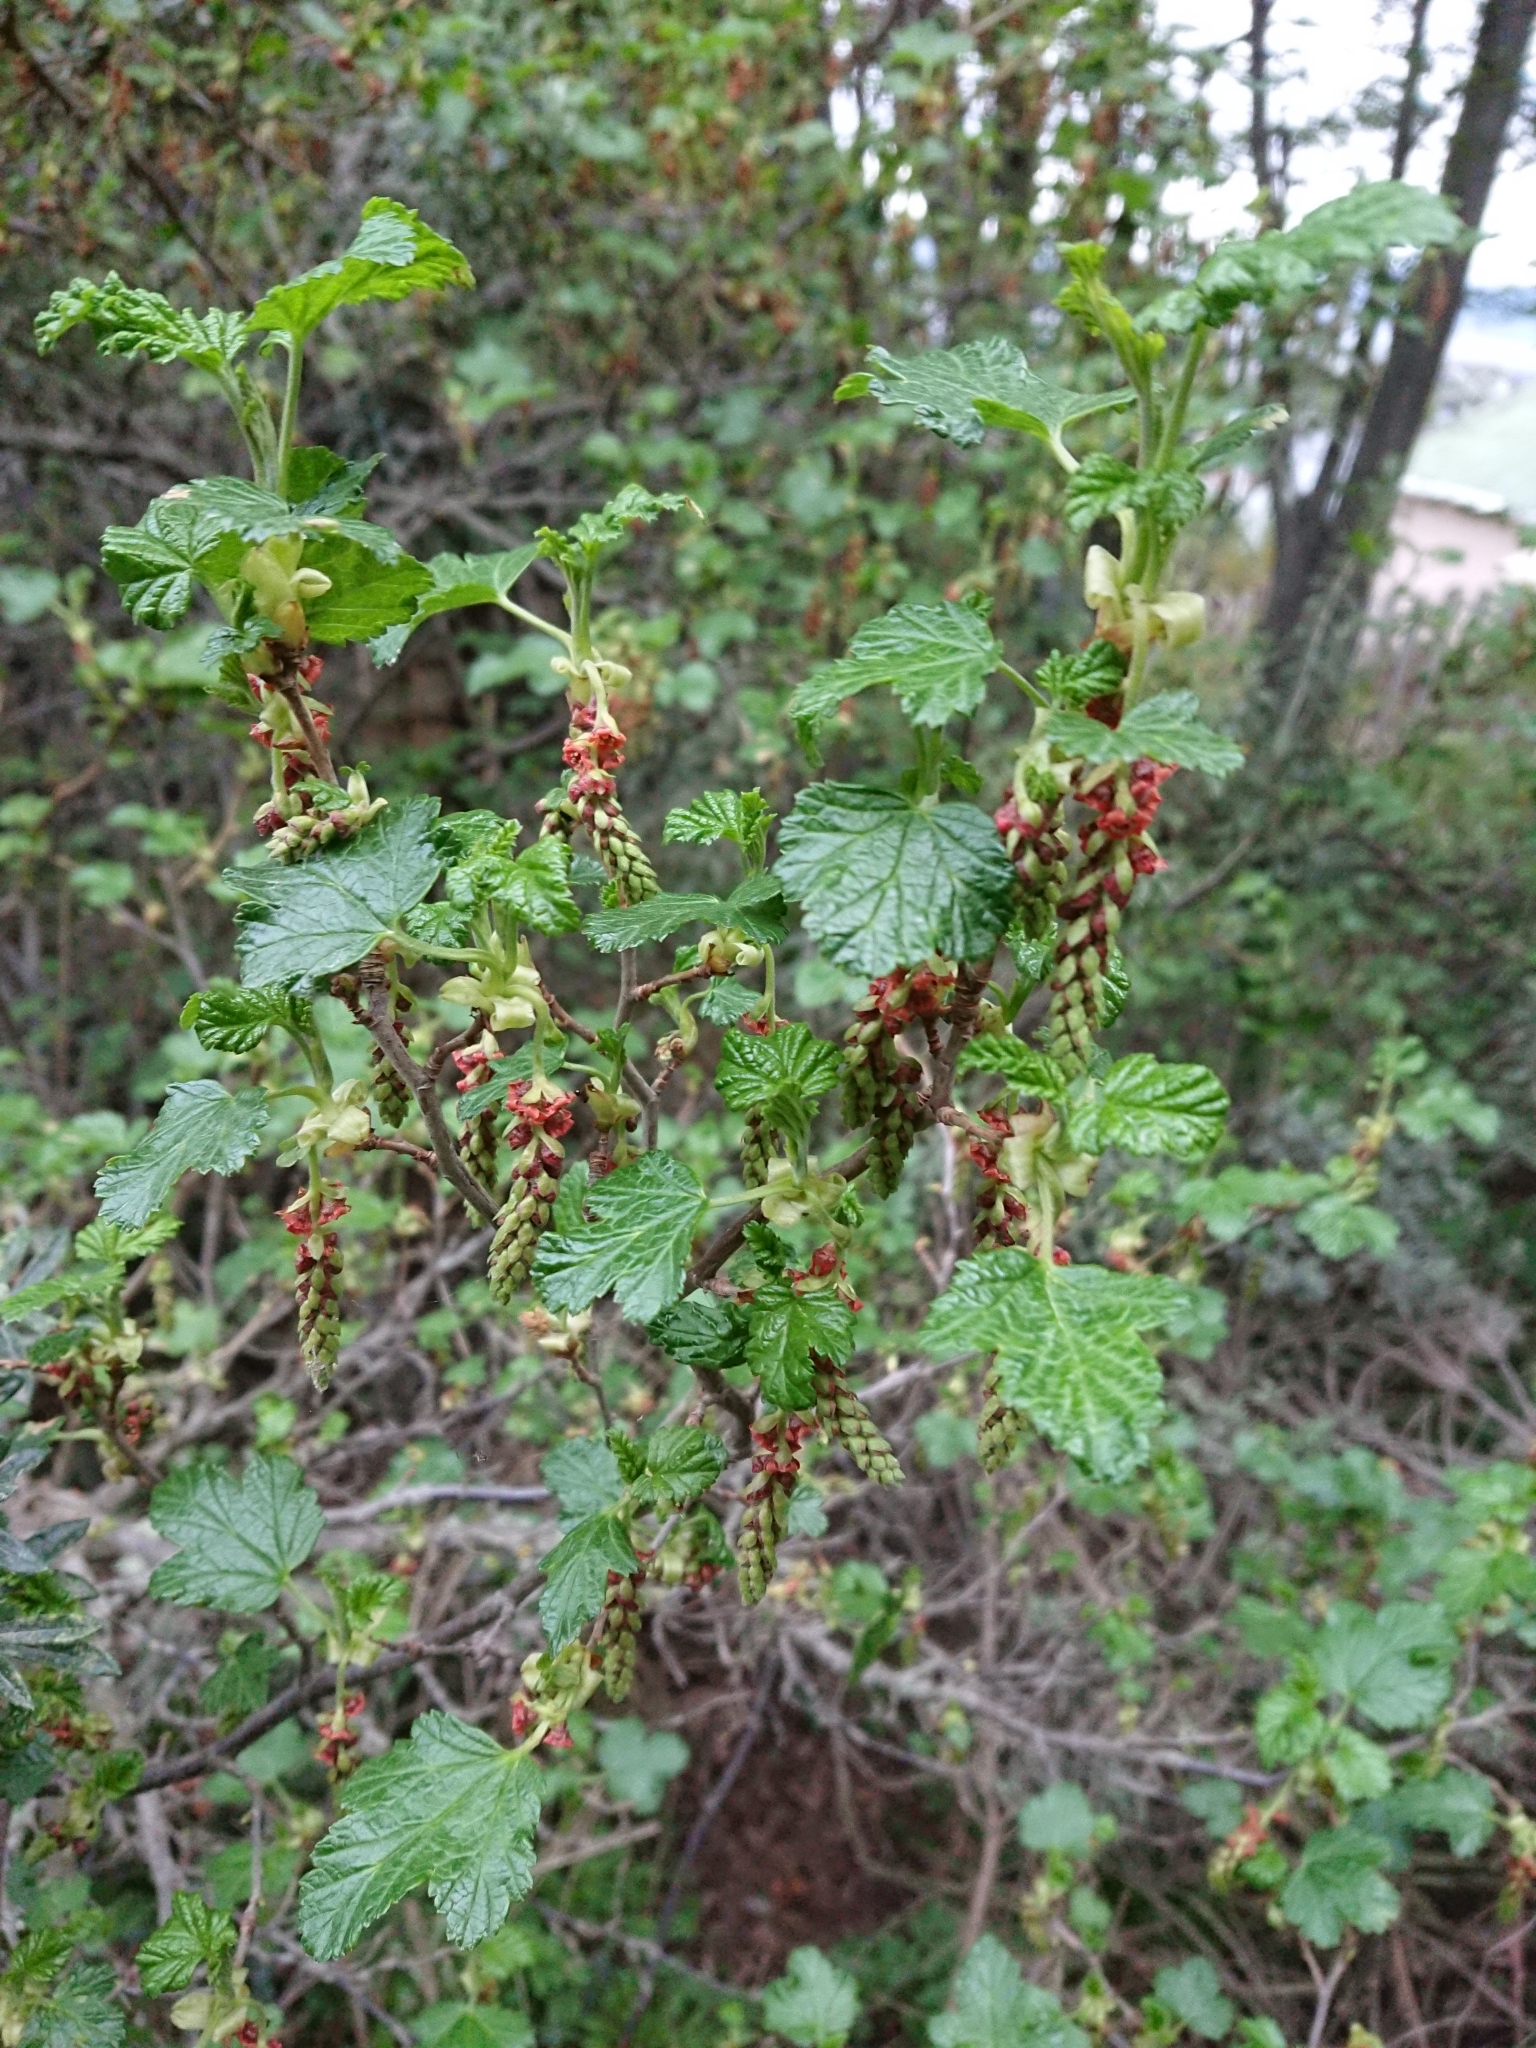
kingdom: Plantae
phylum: Tracheophyta
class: Magnoliopsida
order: Saxifragales
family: Grossulariaceae
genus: Ribes
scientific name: Ribes magellanicum
